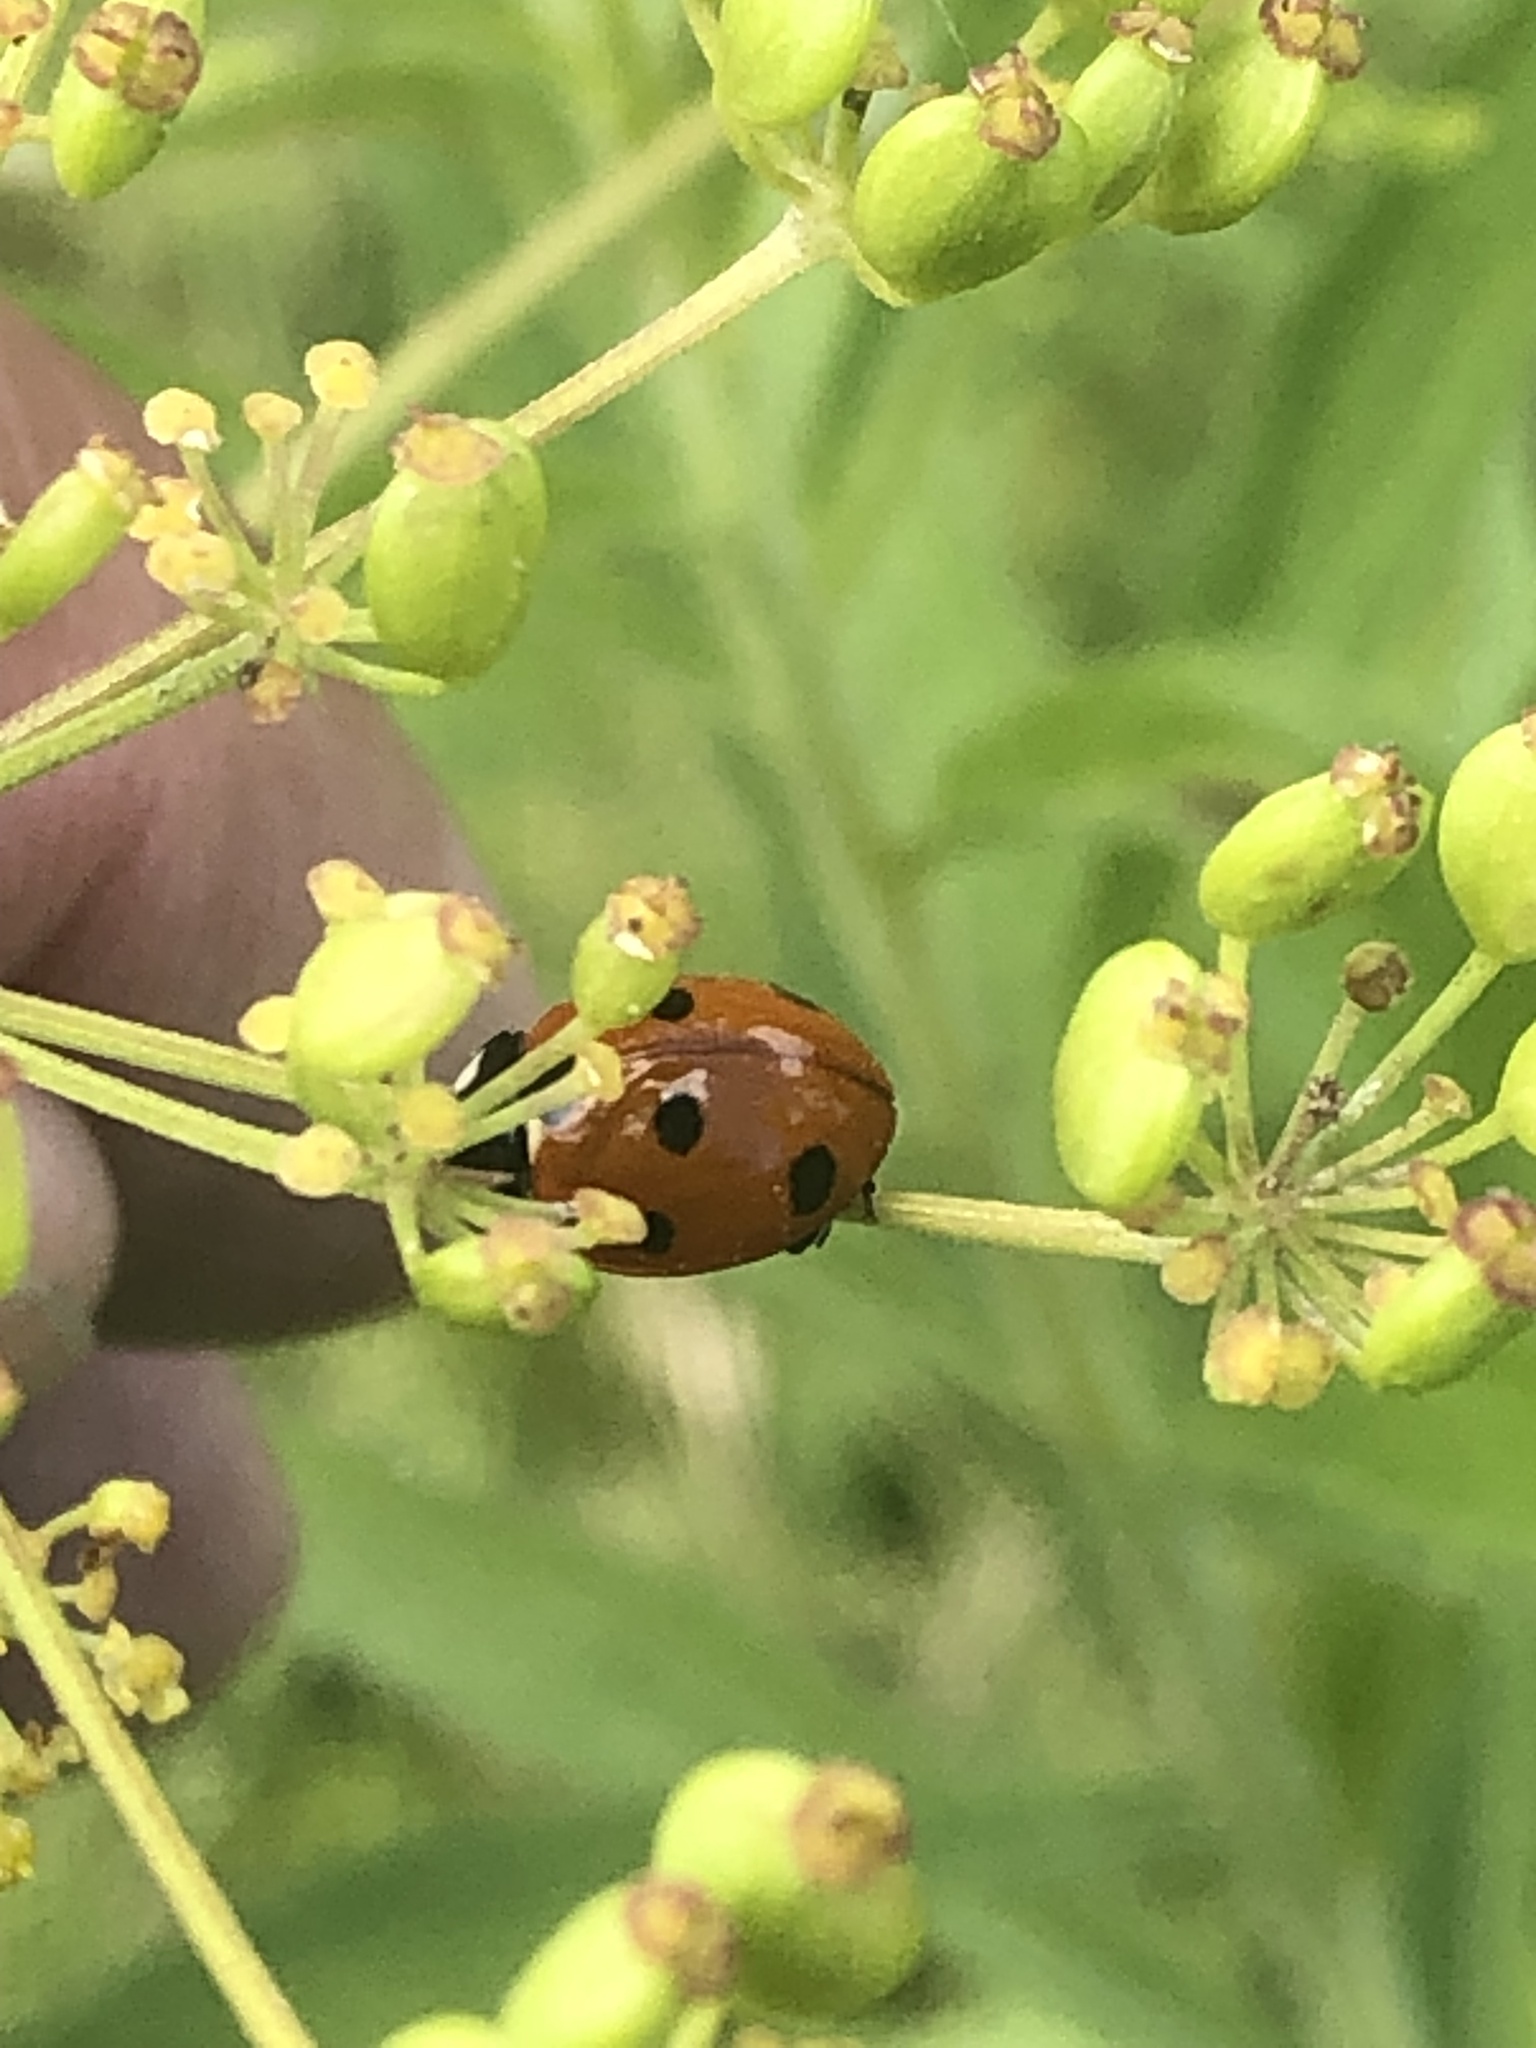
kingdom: Animalia
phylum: Arthropoda
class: Insecta
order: Coleoptera
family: Coccinellidae
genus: Coccinella
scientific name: Coccinella septempunctata
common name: Sevenspotted lady beetle
